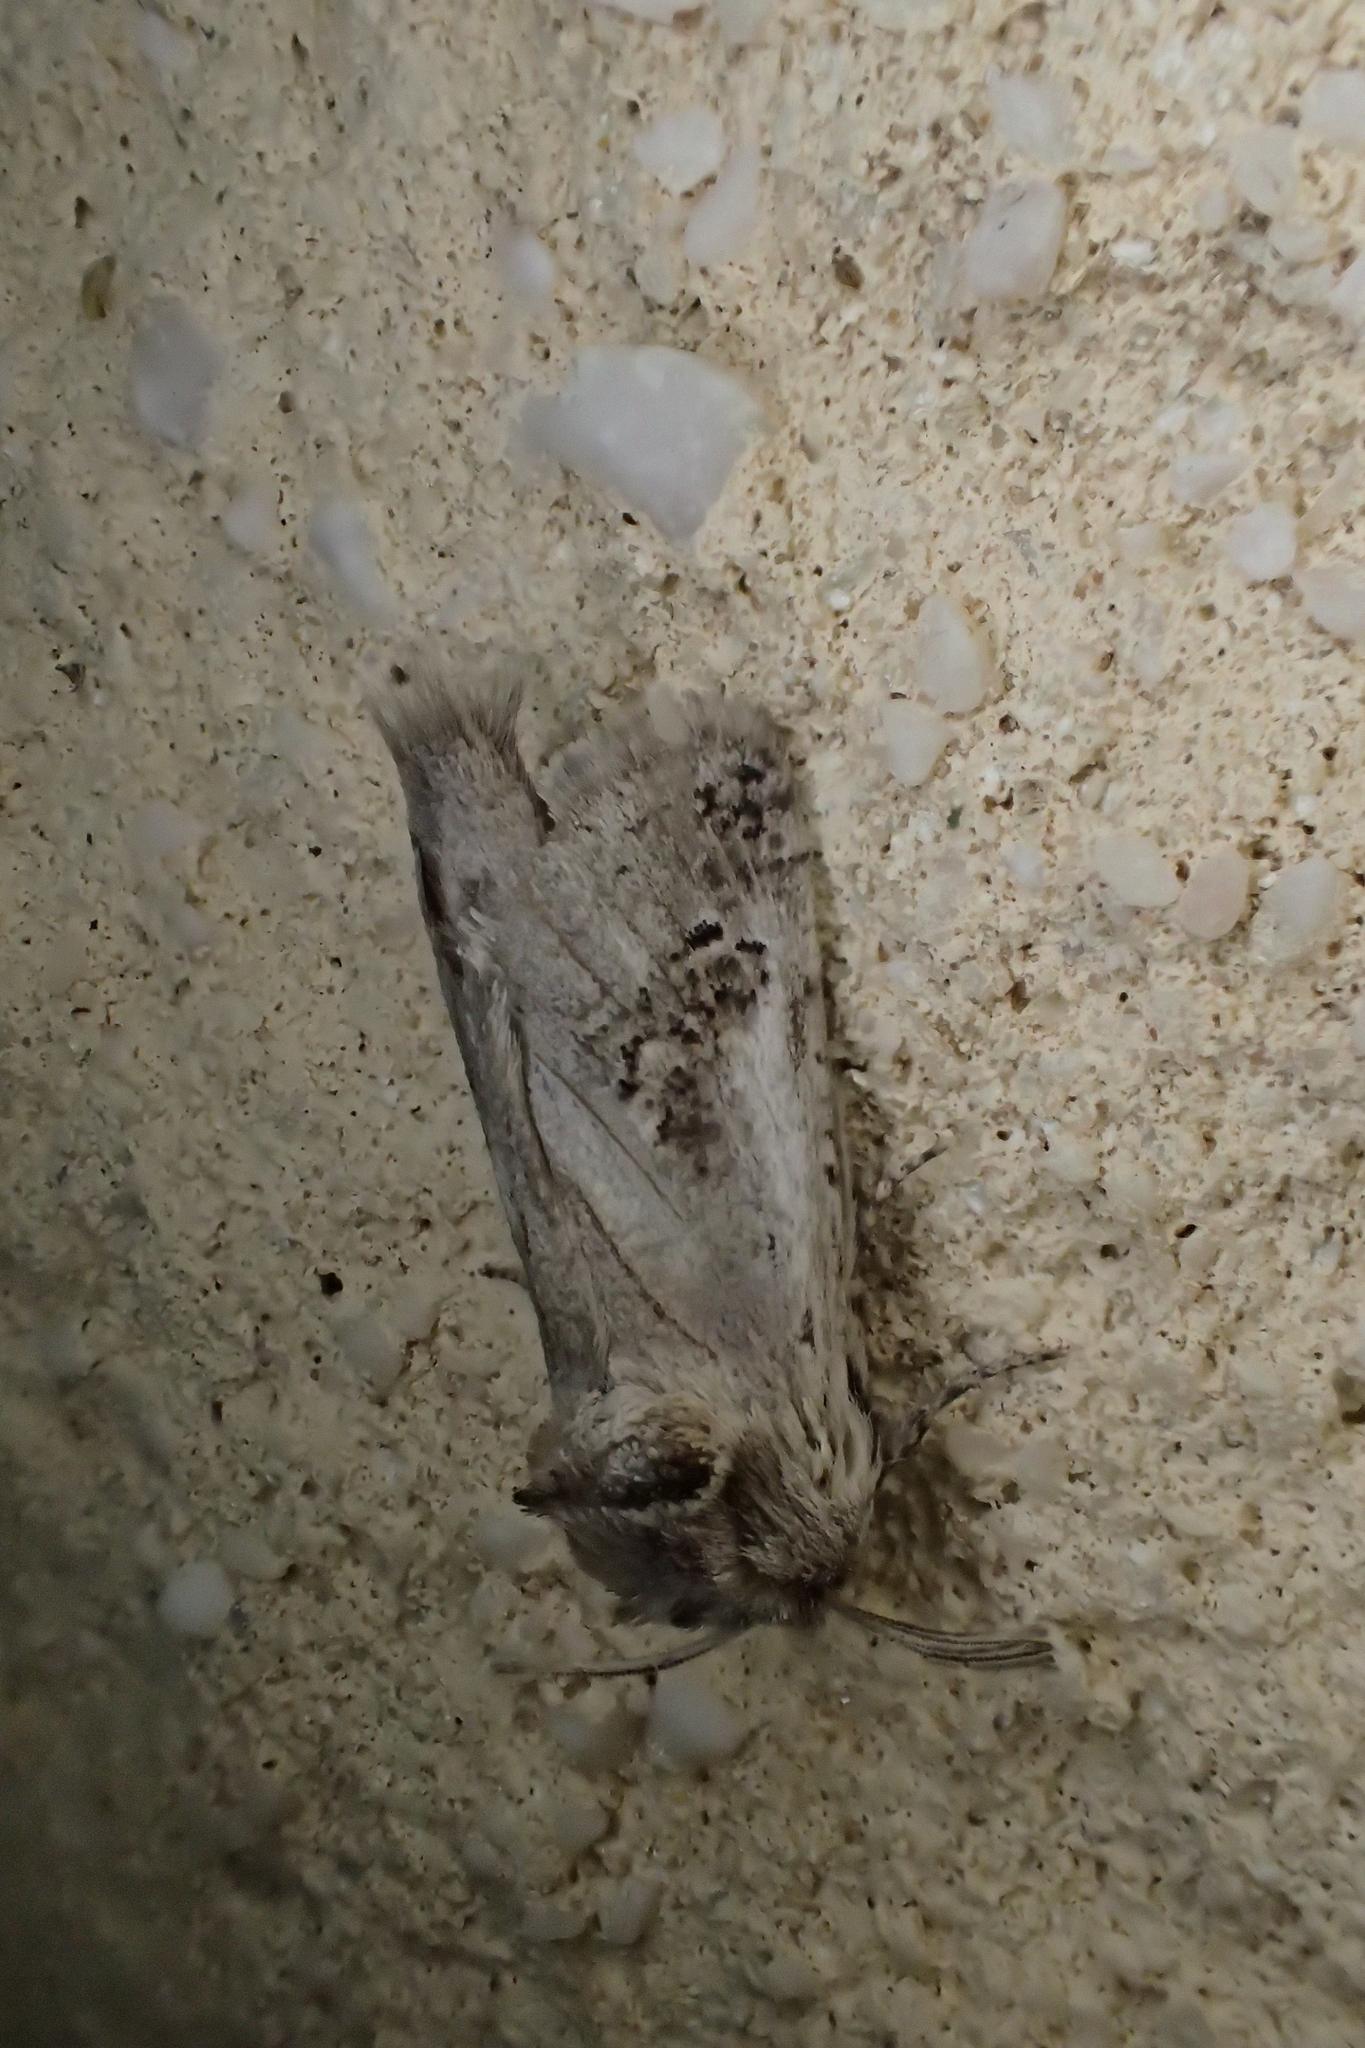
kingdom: Animalia
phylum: Arthropoda
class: Insecta
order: Lepidoptera
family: Cossidae
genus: Parahypopta
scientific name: Parahypopta caestrum
